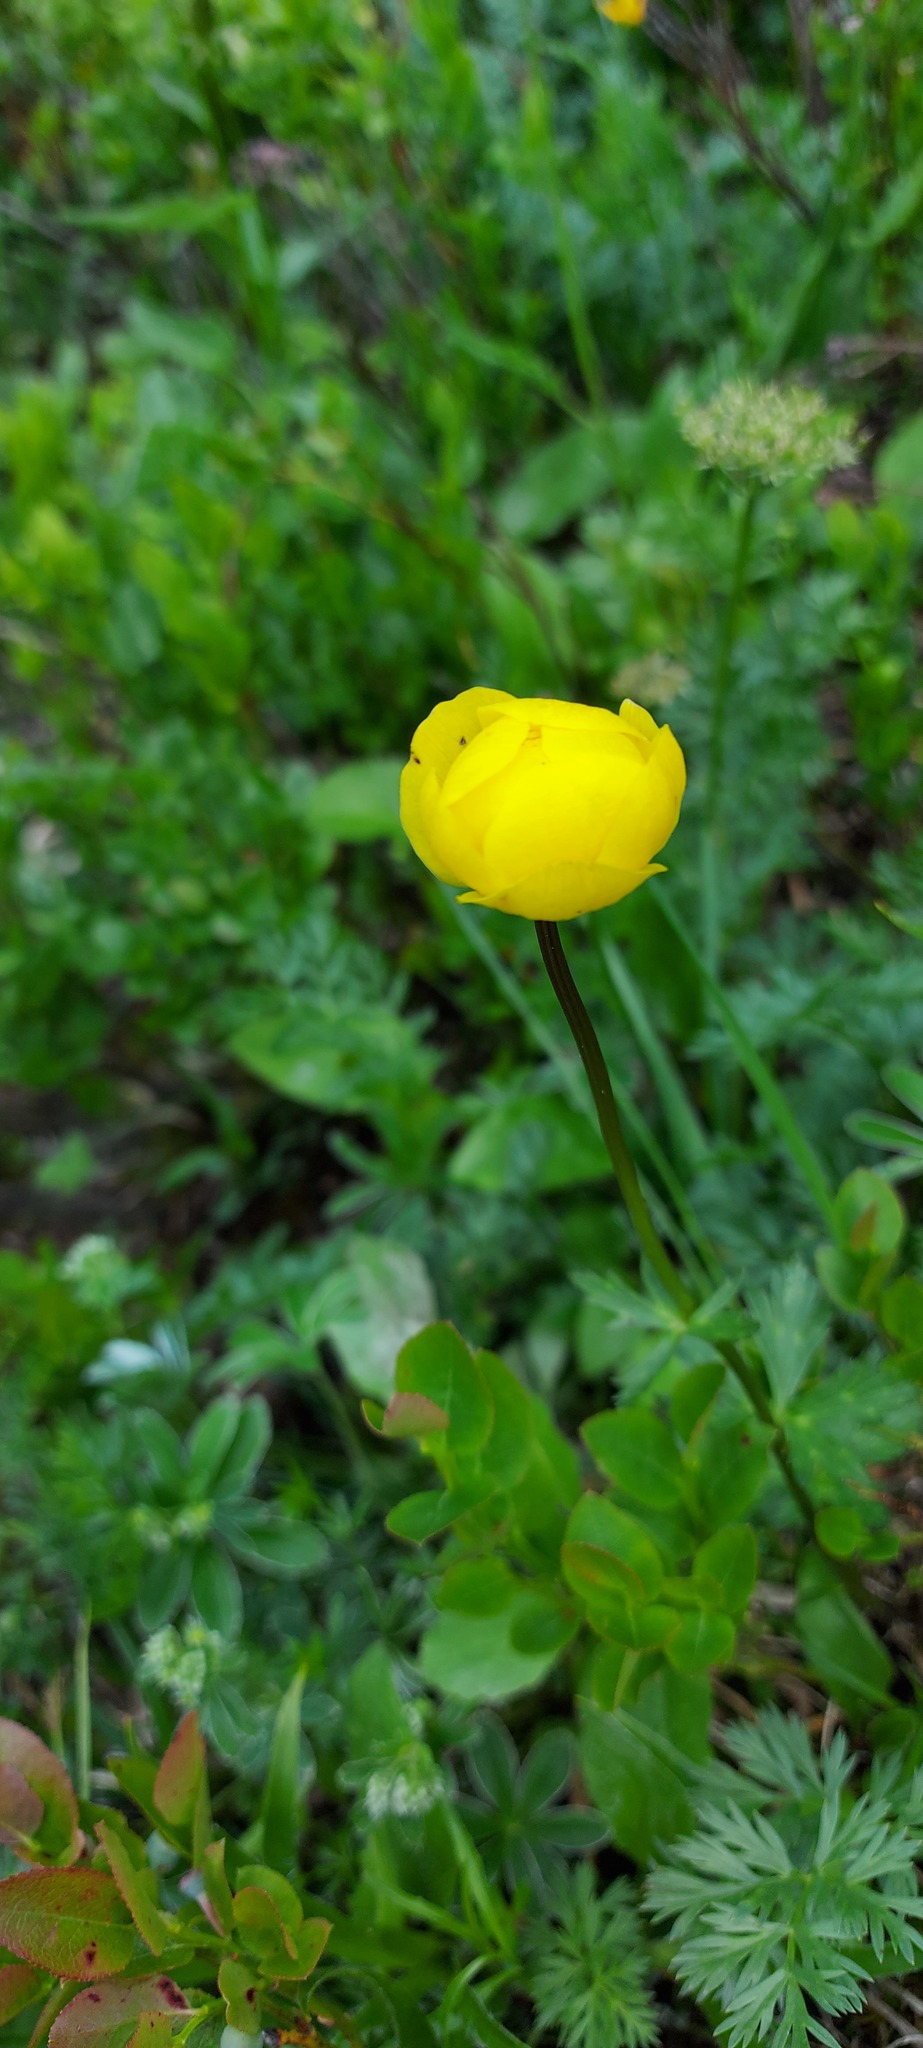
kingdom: Plantae
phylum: Tracheophyta
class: Magnoliopsida
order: Ranunculales
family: Ranunculaceae
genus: Trollius
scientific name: Trollius europaeus
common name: European globeflower
